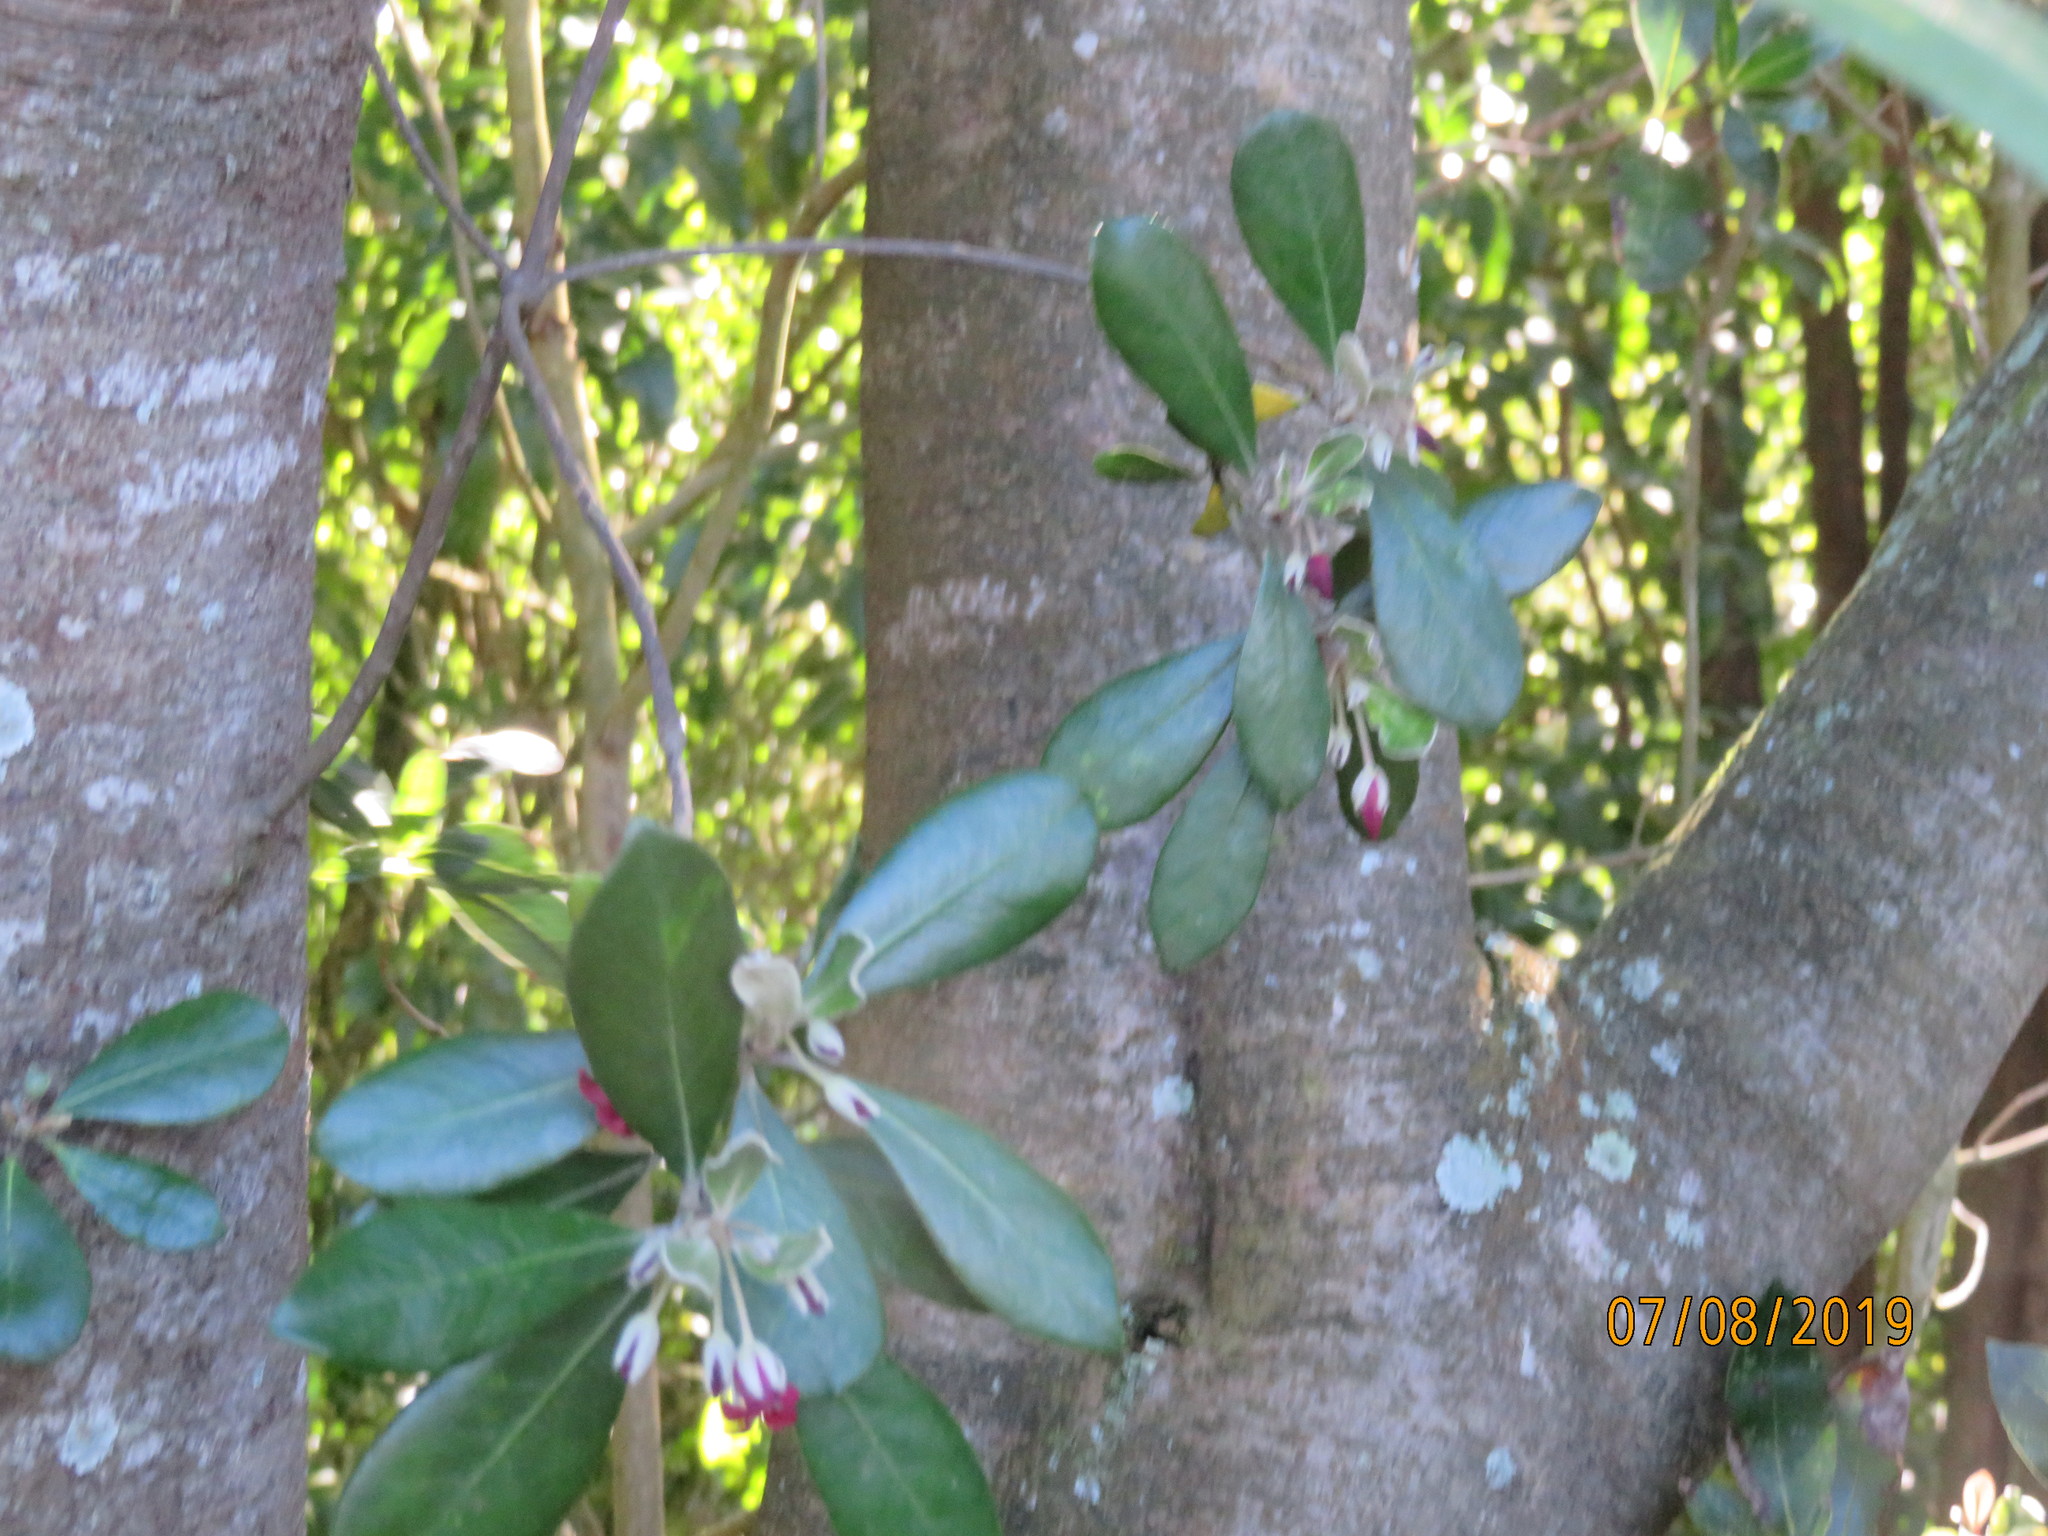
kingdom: Plantae
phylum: Tracheophyta
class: Magnoliopsida
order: Apiales
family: Pittosporaceae
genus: Pittosporum
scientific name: Pittosporum crassifolium
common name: Karo
